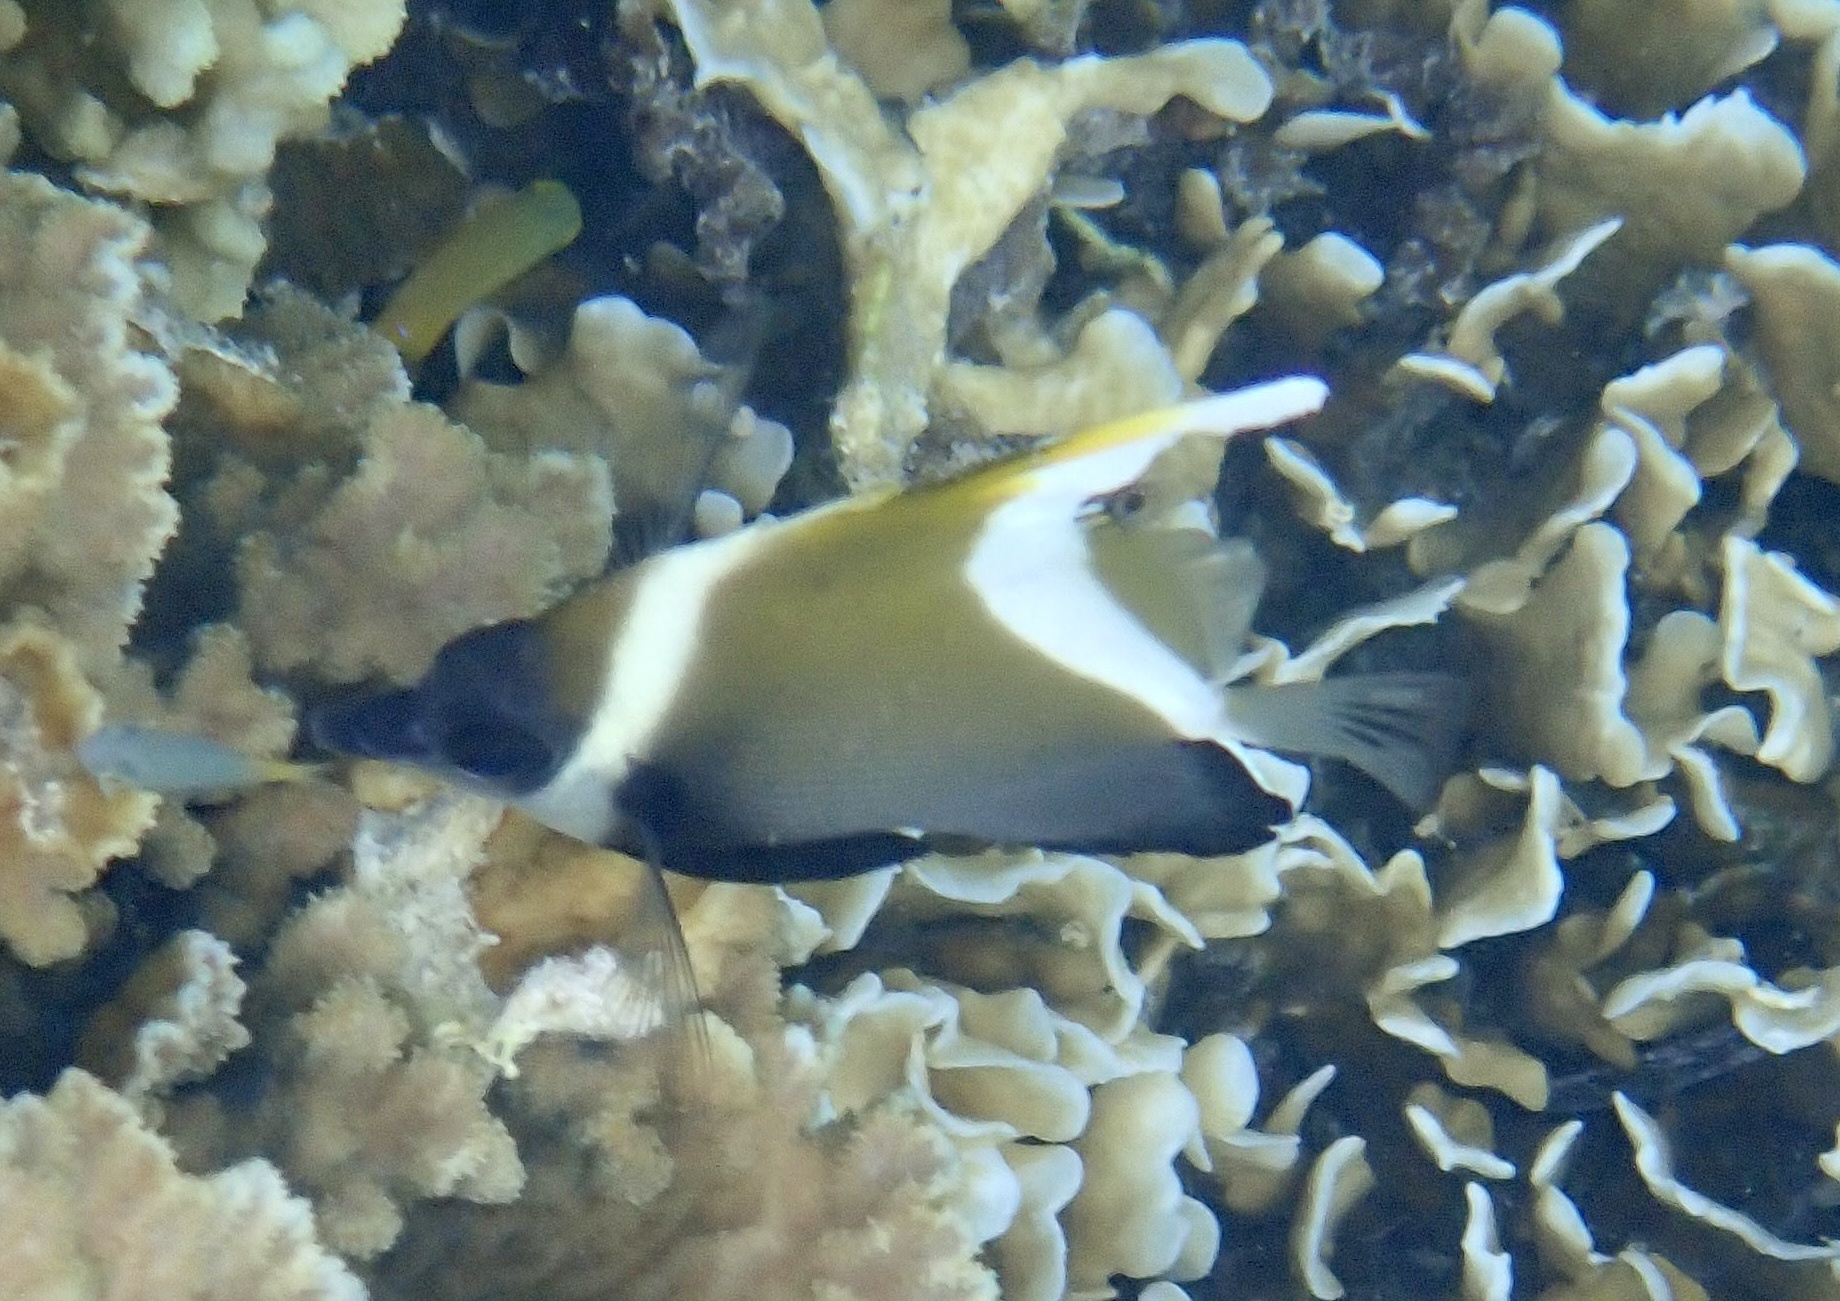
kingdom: Animalia
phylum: Chordata
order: Perciformes
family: Chaetodontidae
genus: Heniochus
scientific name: Heniochus varius
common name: Horned bannerfish
